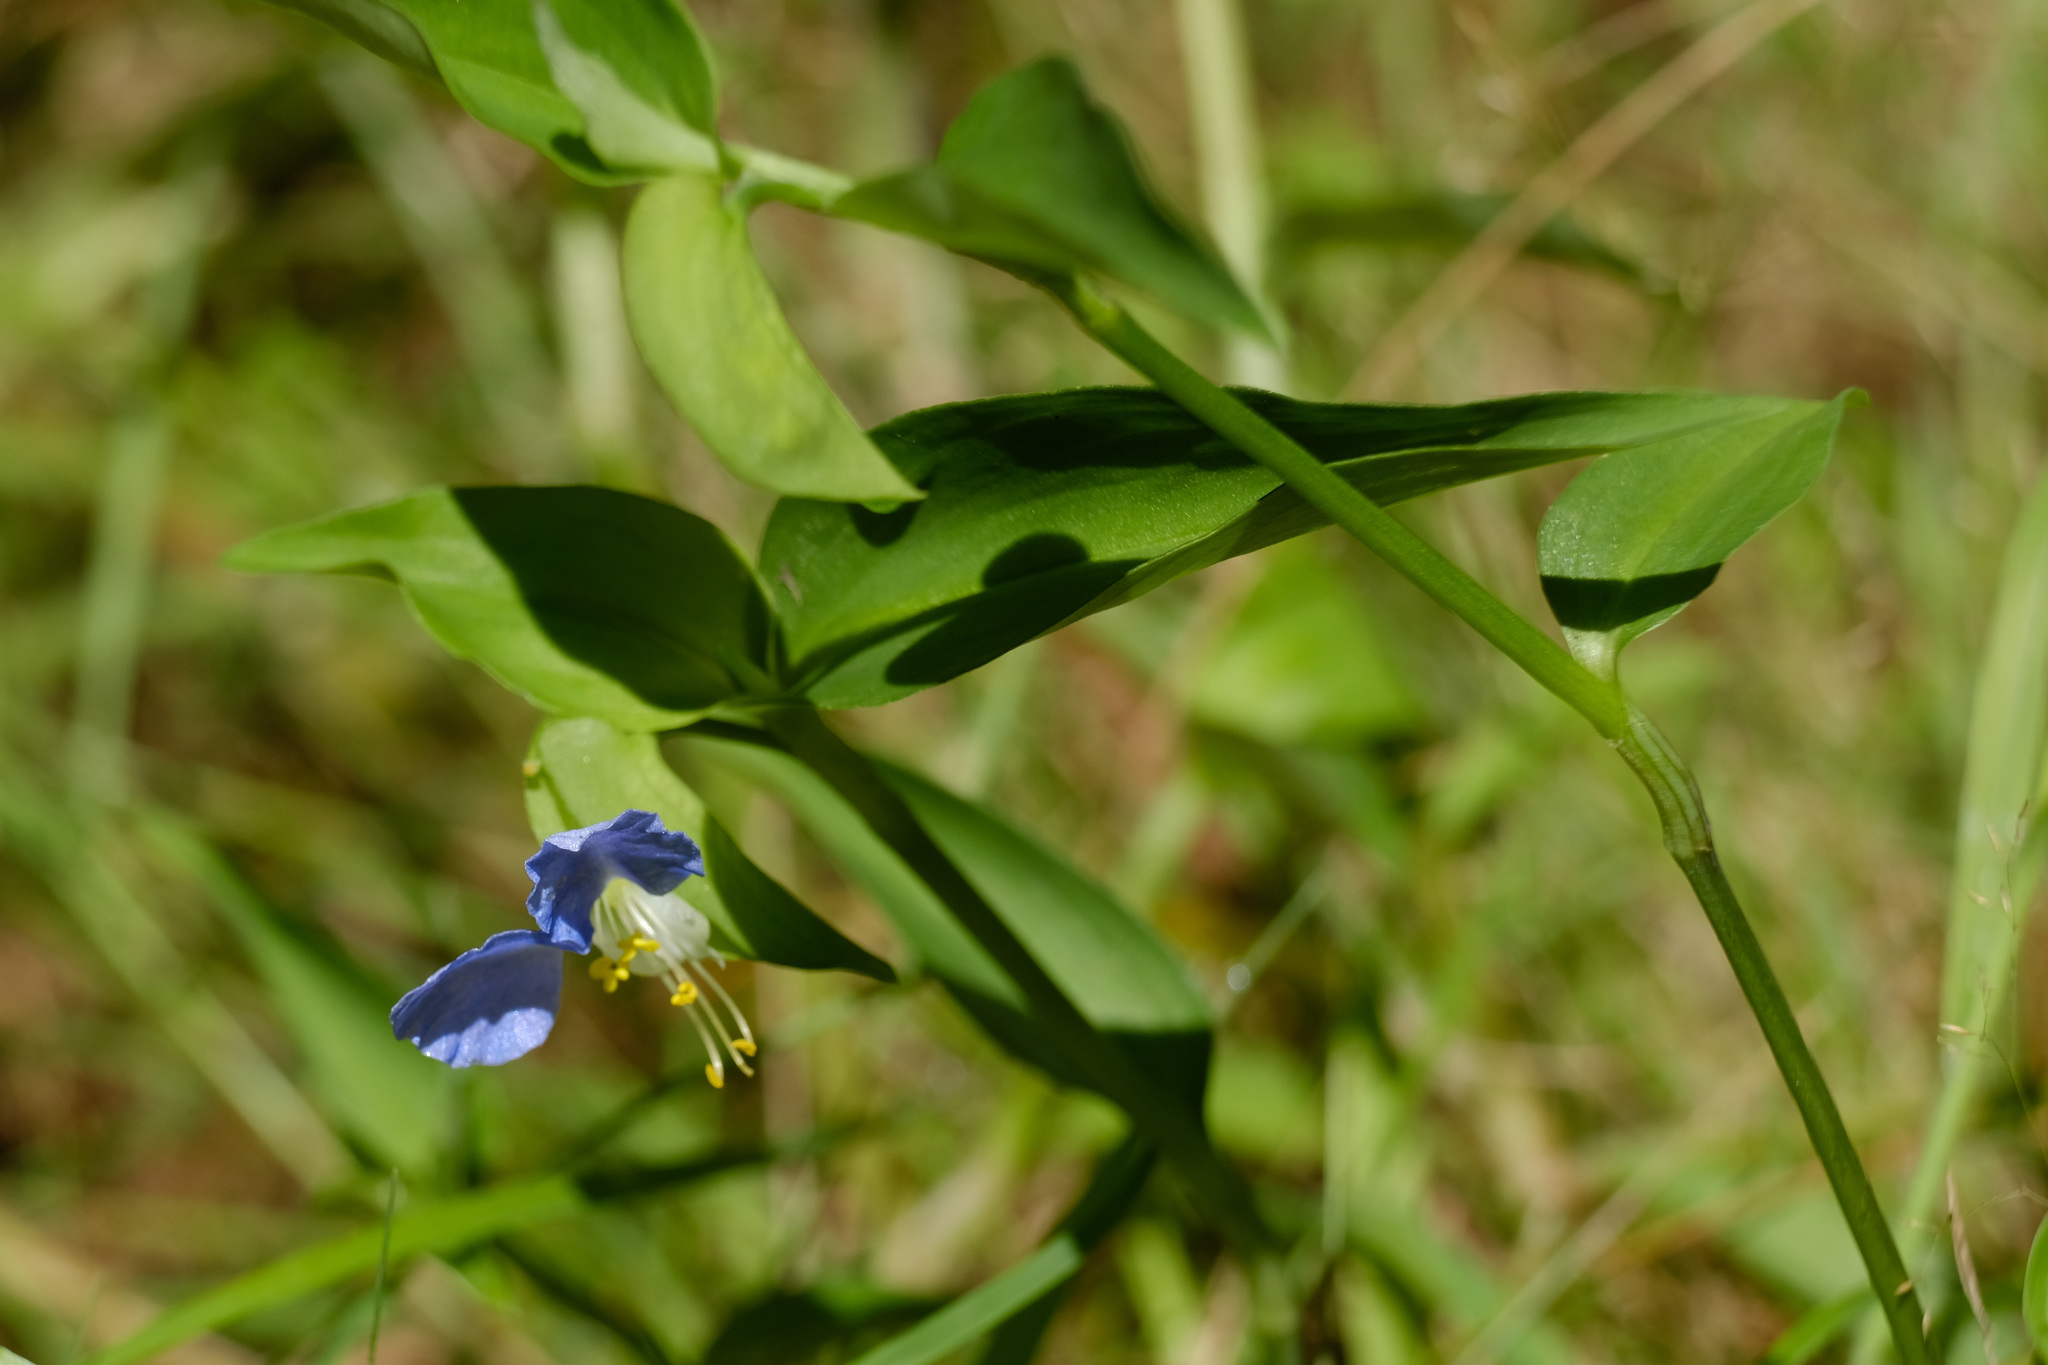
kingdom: Plantae
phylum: Tracheophyta
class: Liliopsida
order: Commelinales
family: Commelinaceae
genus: Commelina
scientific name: Commelina communis
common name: Asiatic dayflower
